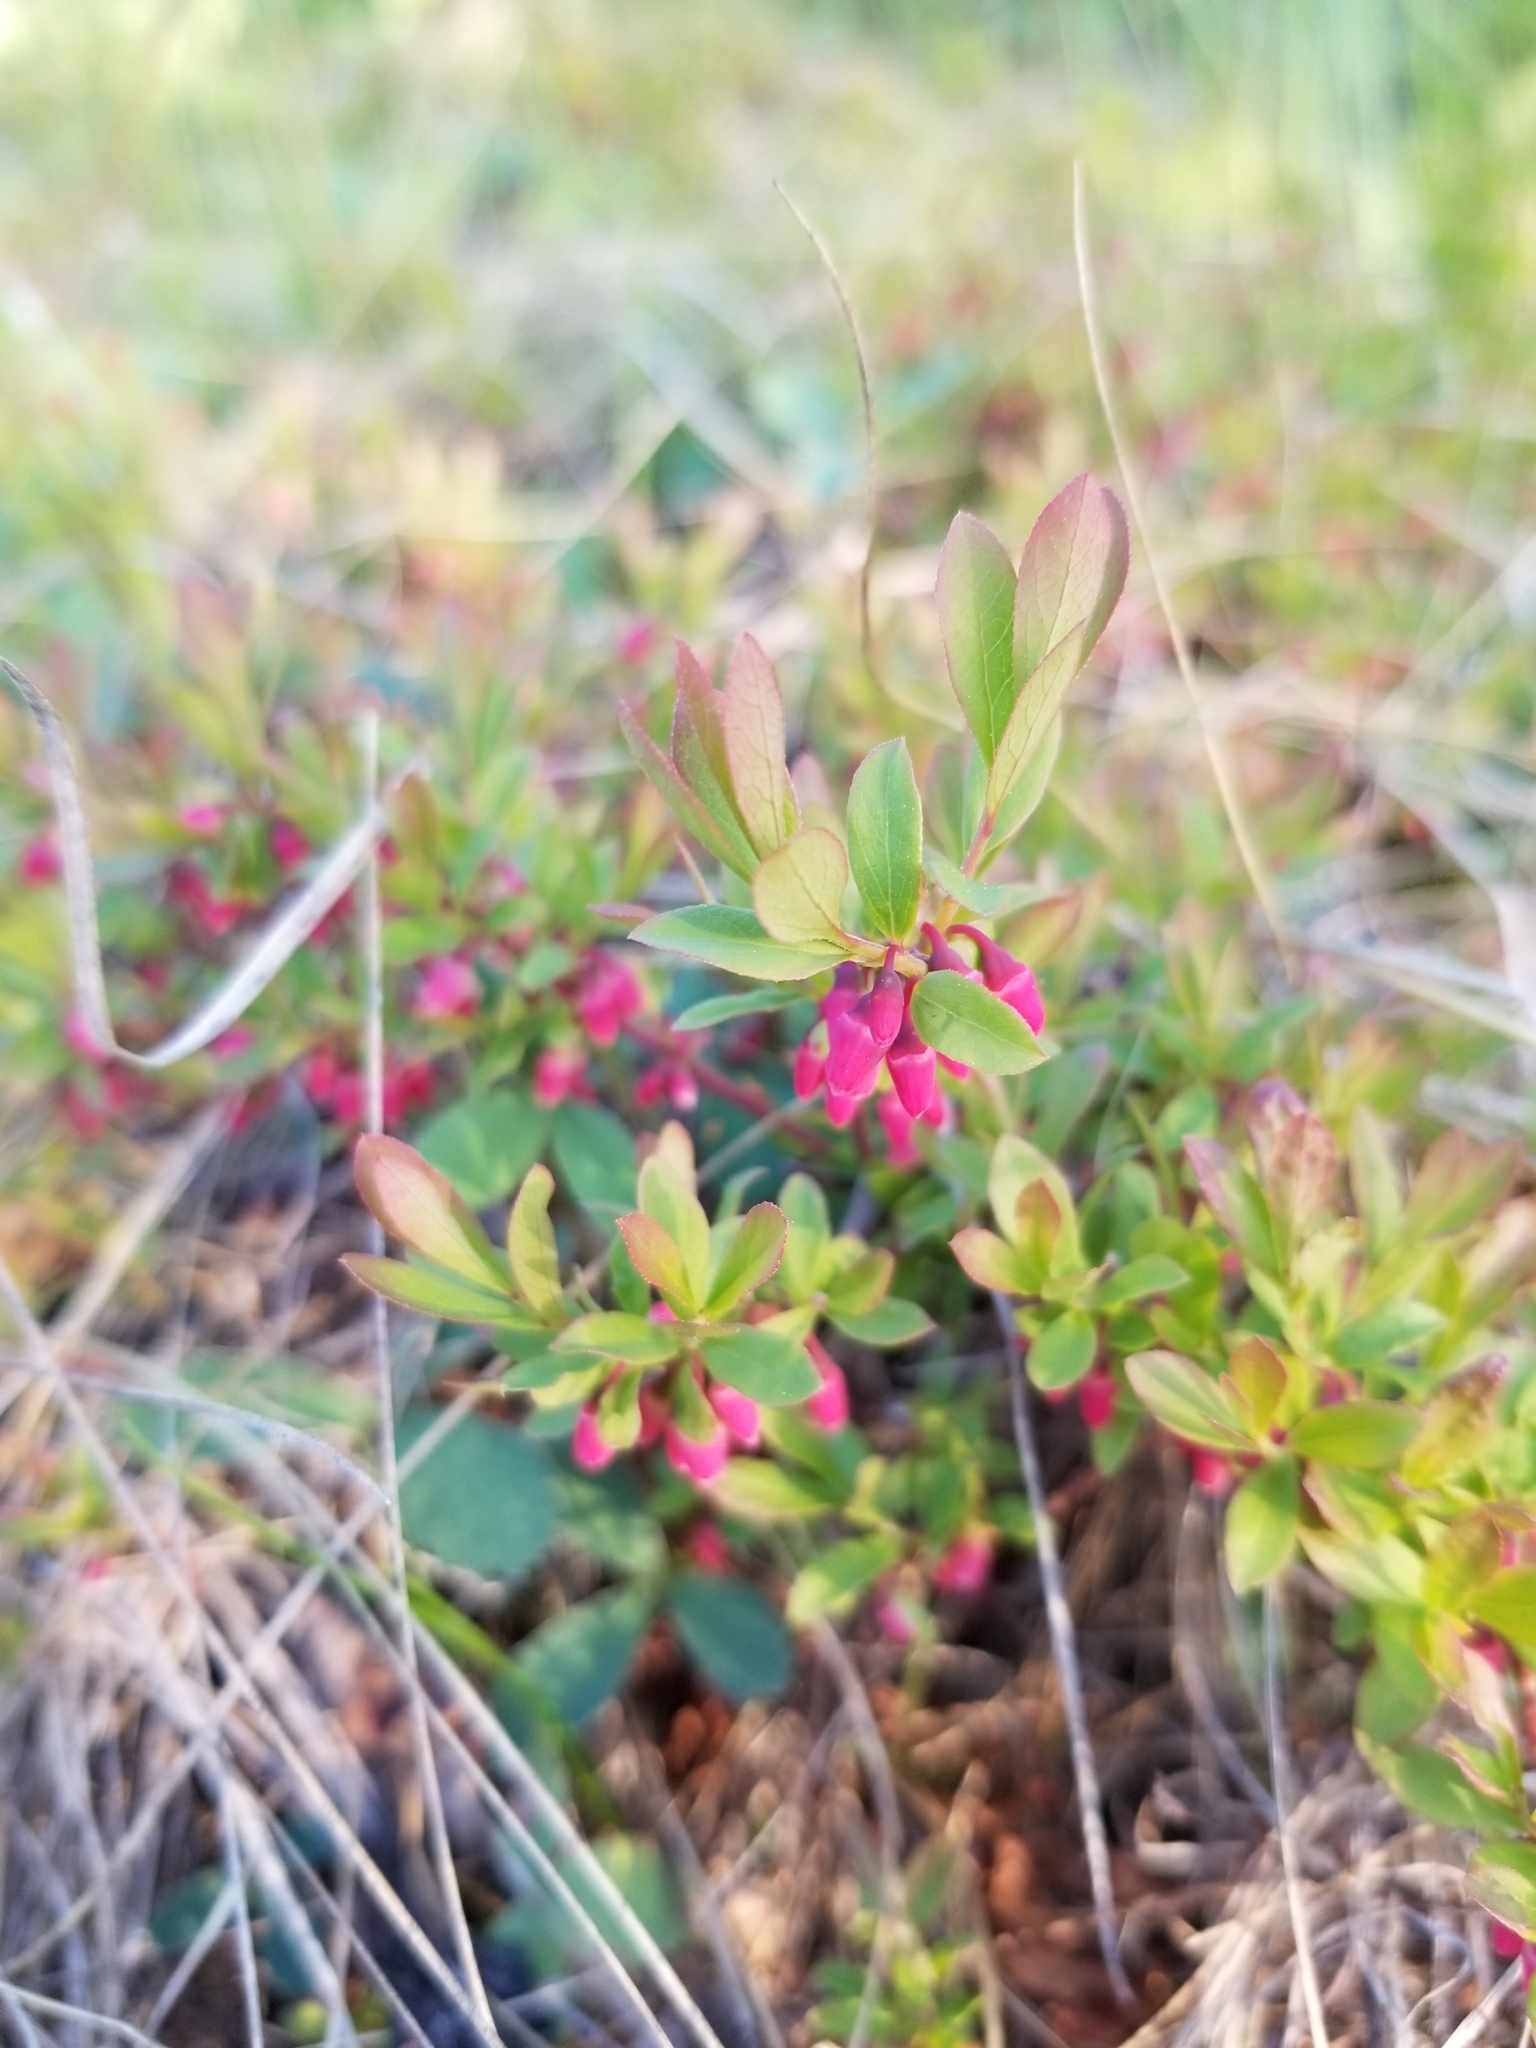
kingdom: Plantae
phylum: Tracheophyta
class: Magnoliopsida
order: Ericales
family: Ericaceae
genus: Vaccinium
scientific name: Vaccinium cespitosum
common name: Dwarf bilberry
